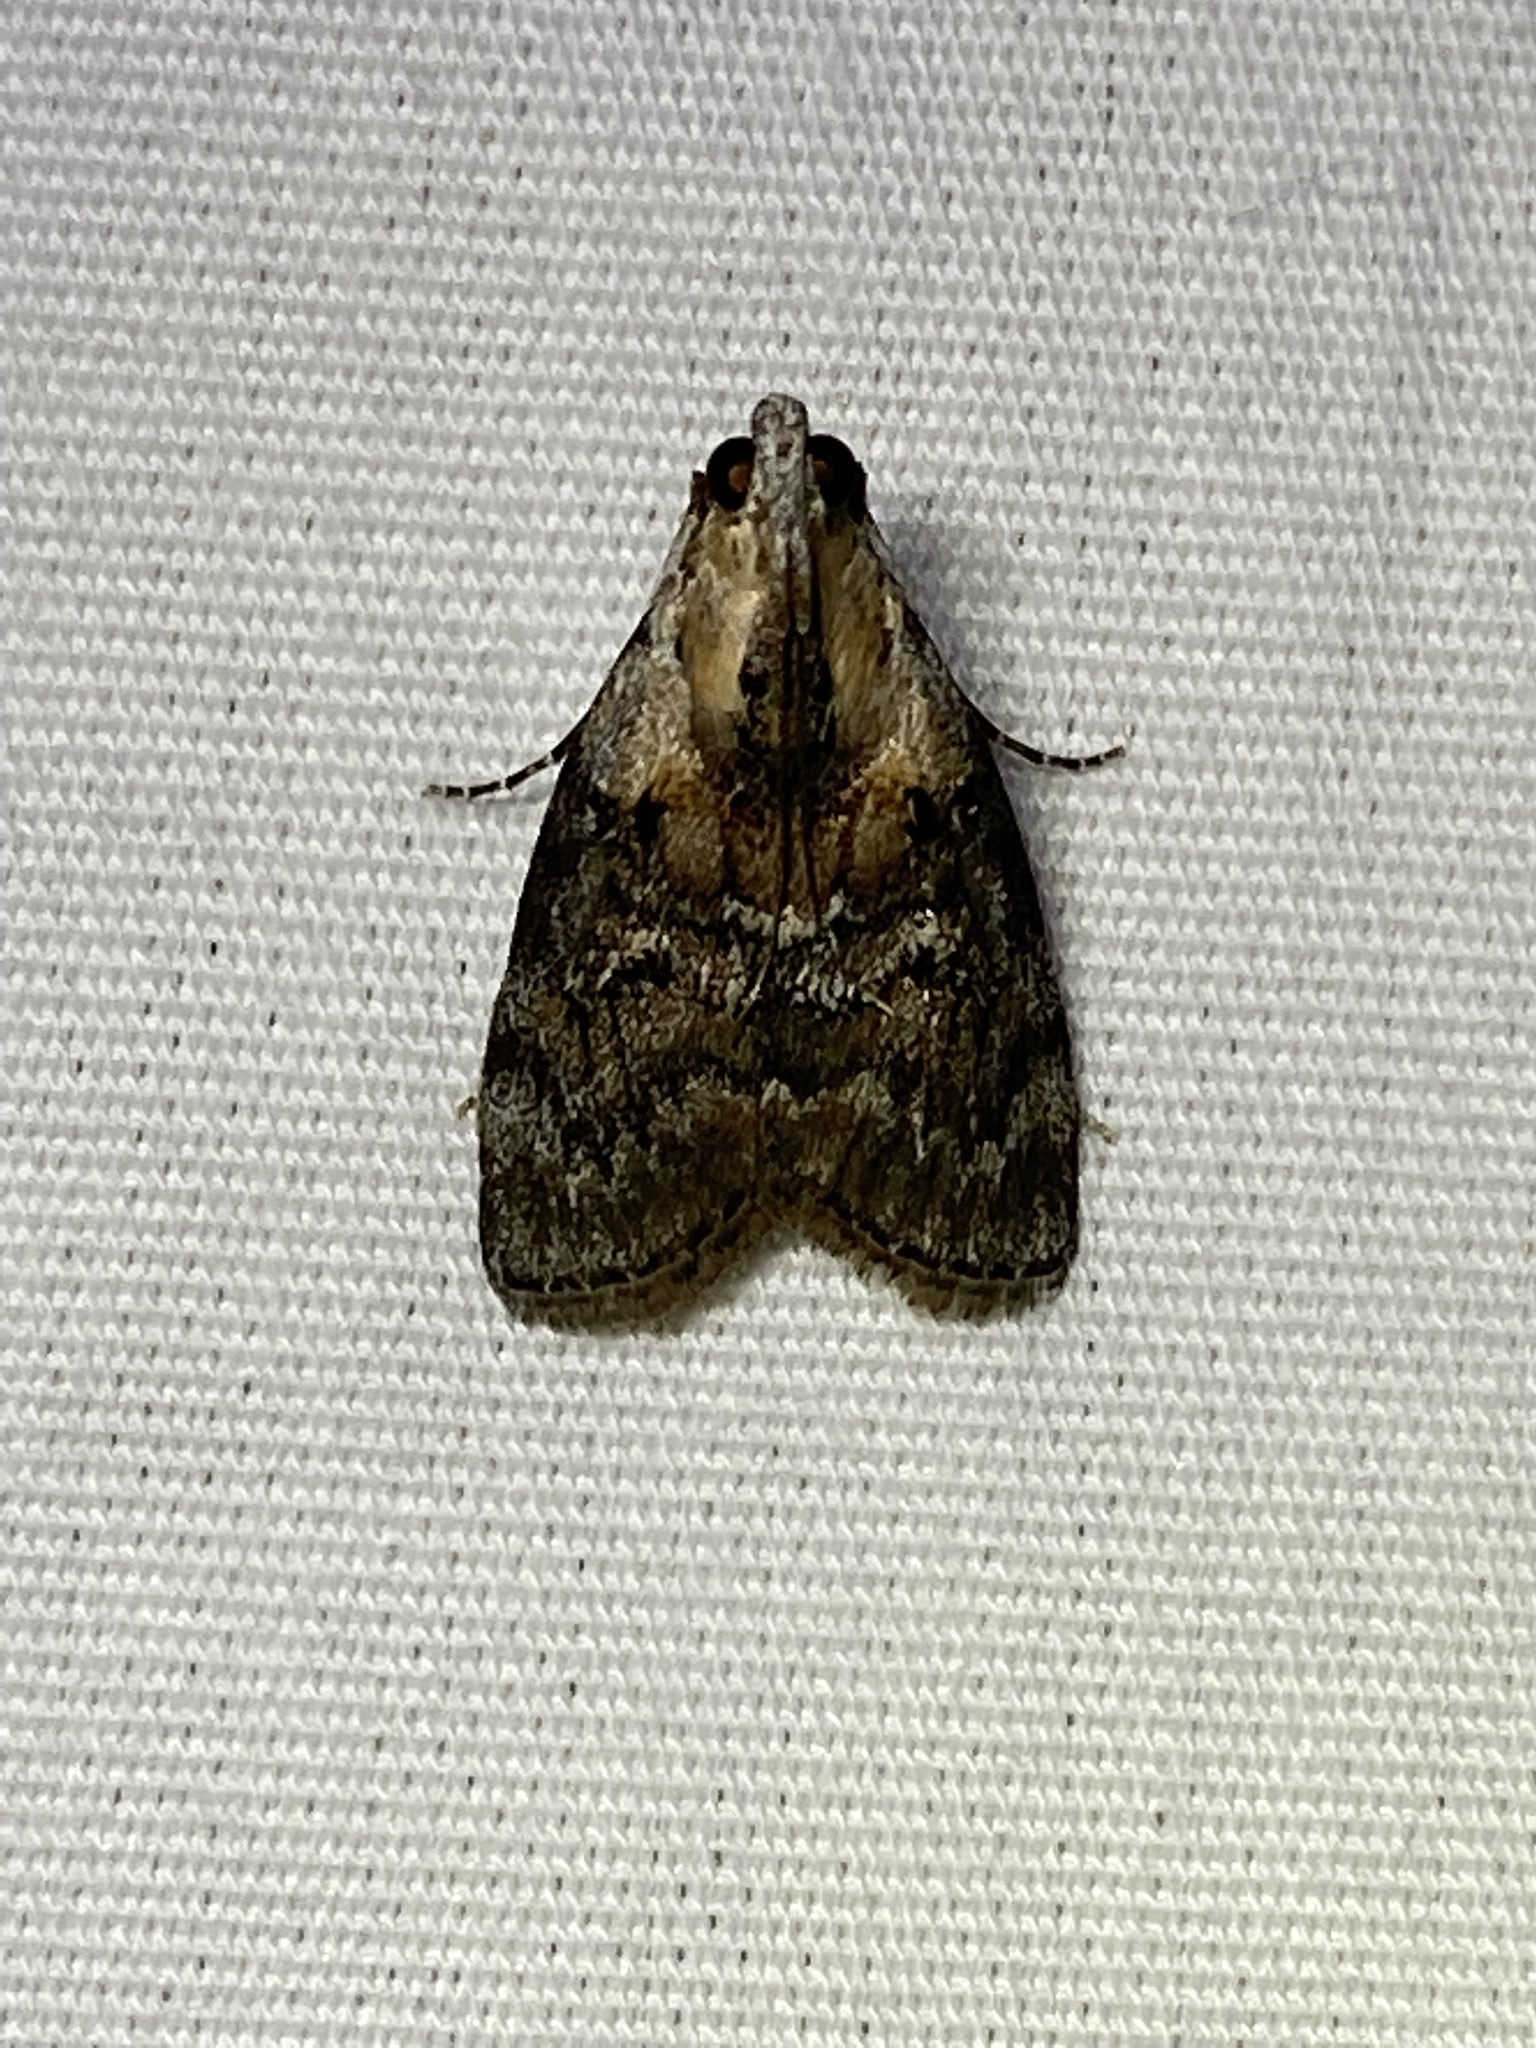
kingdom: Animalia
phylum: Arthropoda
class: Insecta
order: Lepidoptera
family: Pyralidae
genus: Pococera
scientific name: Pococera expandens
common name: Striped oak webworm moth
